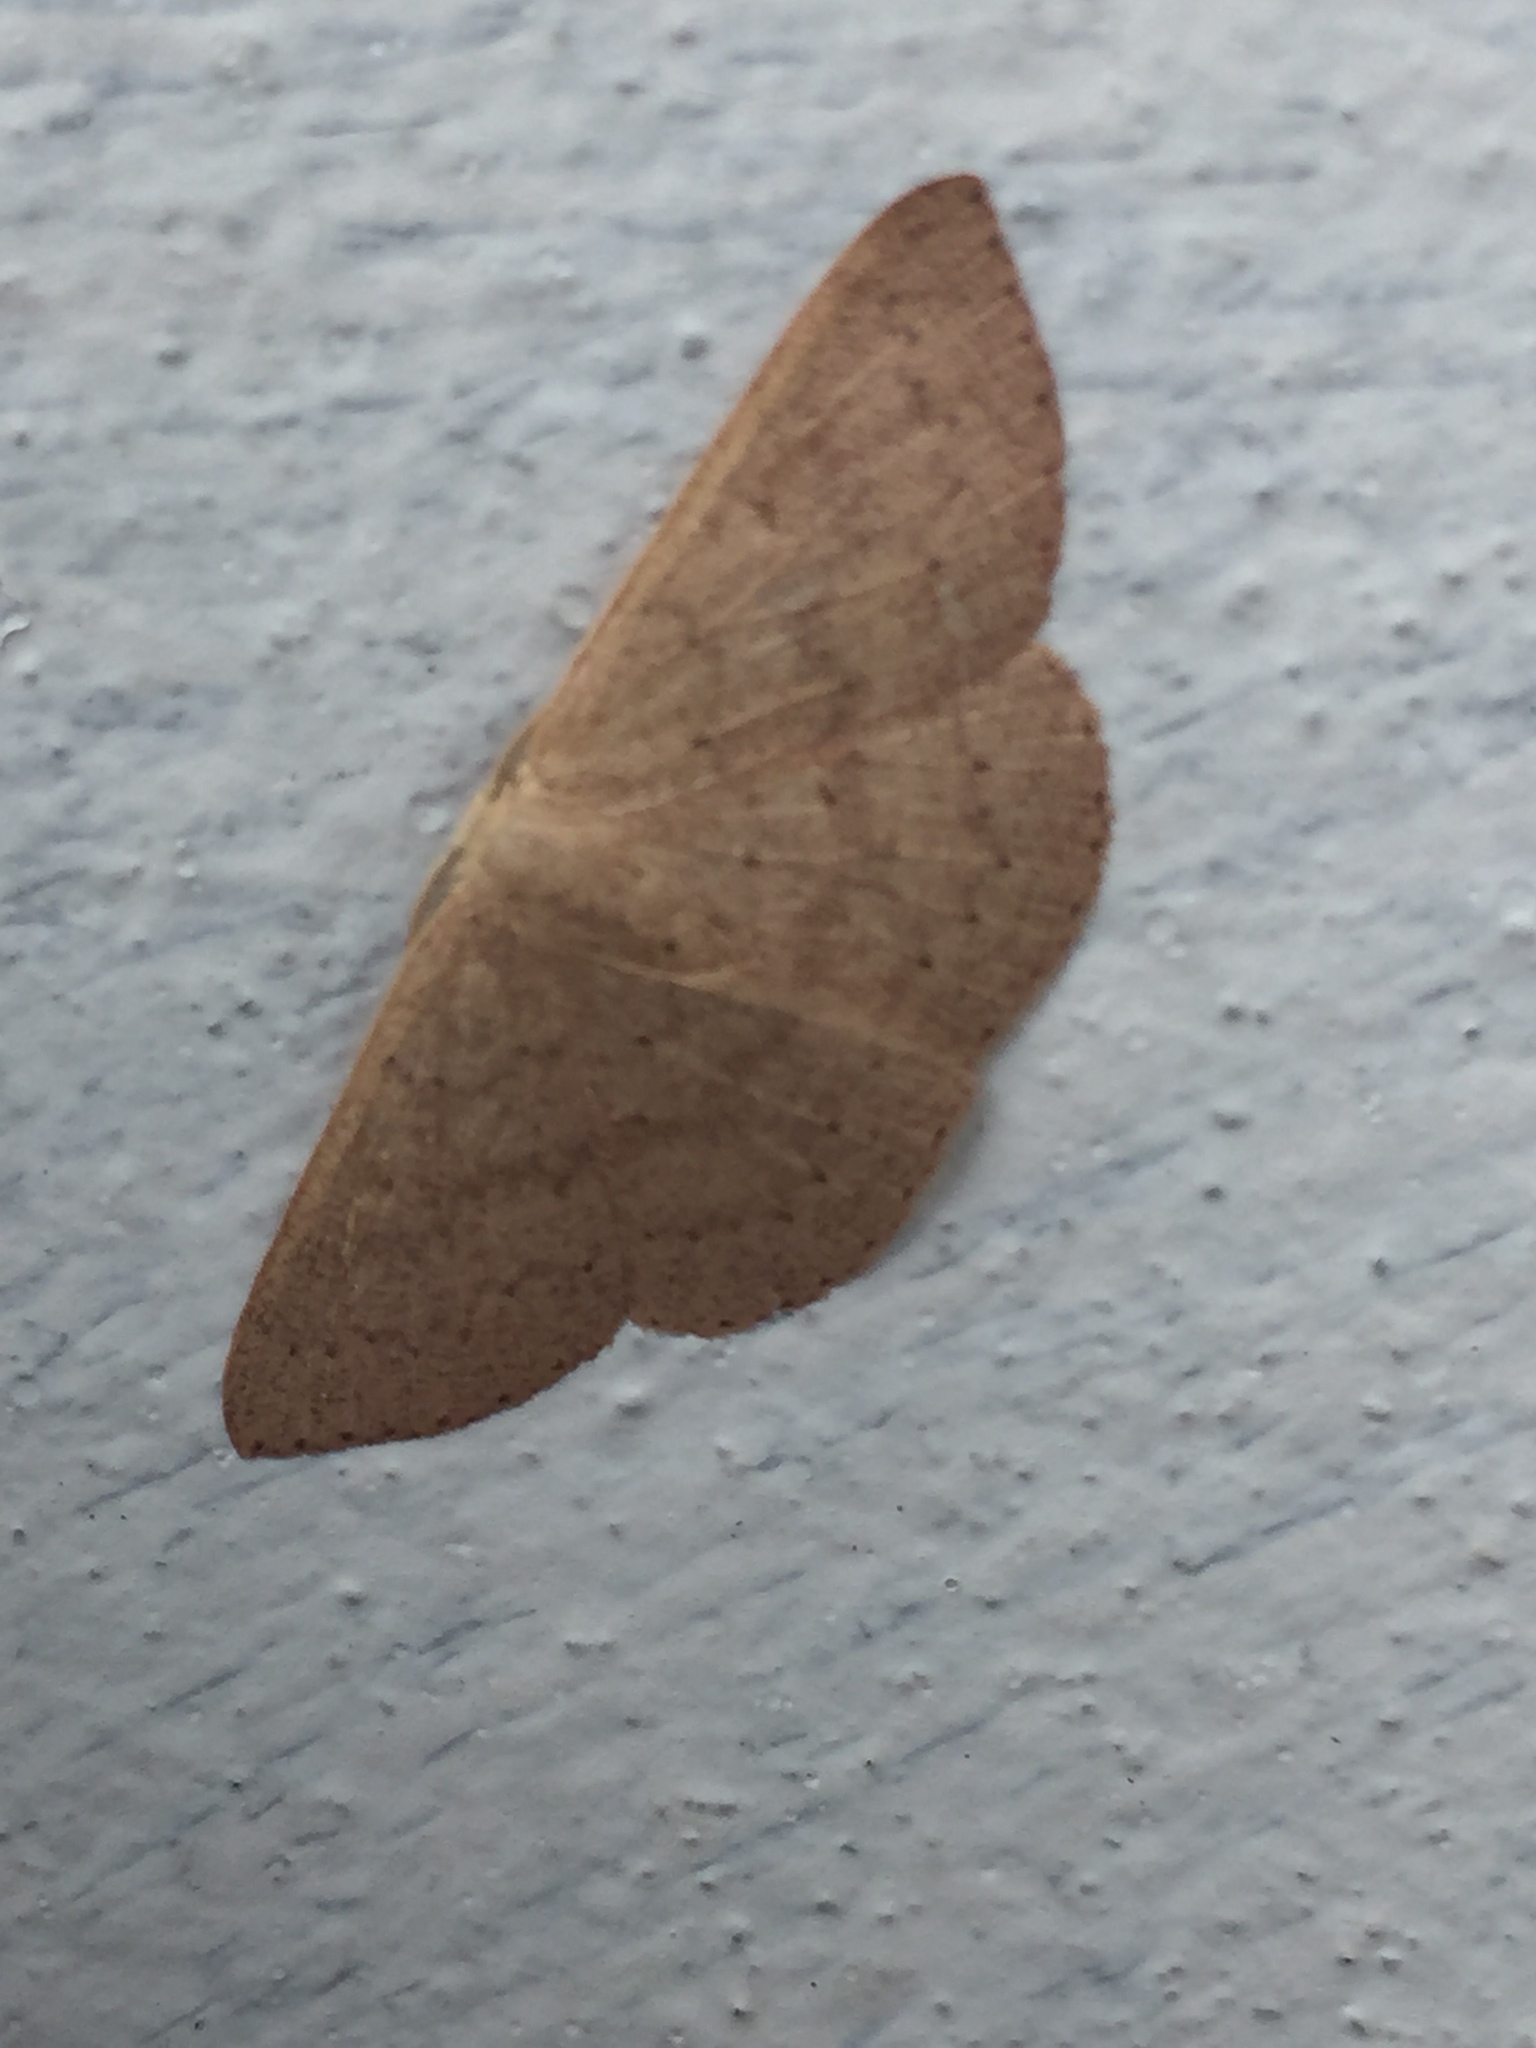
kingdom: Animalia
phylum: Arthropoda
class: Insecta
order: Lepidoptera
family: Geometridae
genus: Cyclophora
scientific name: Cyclophora obstataria
